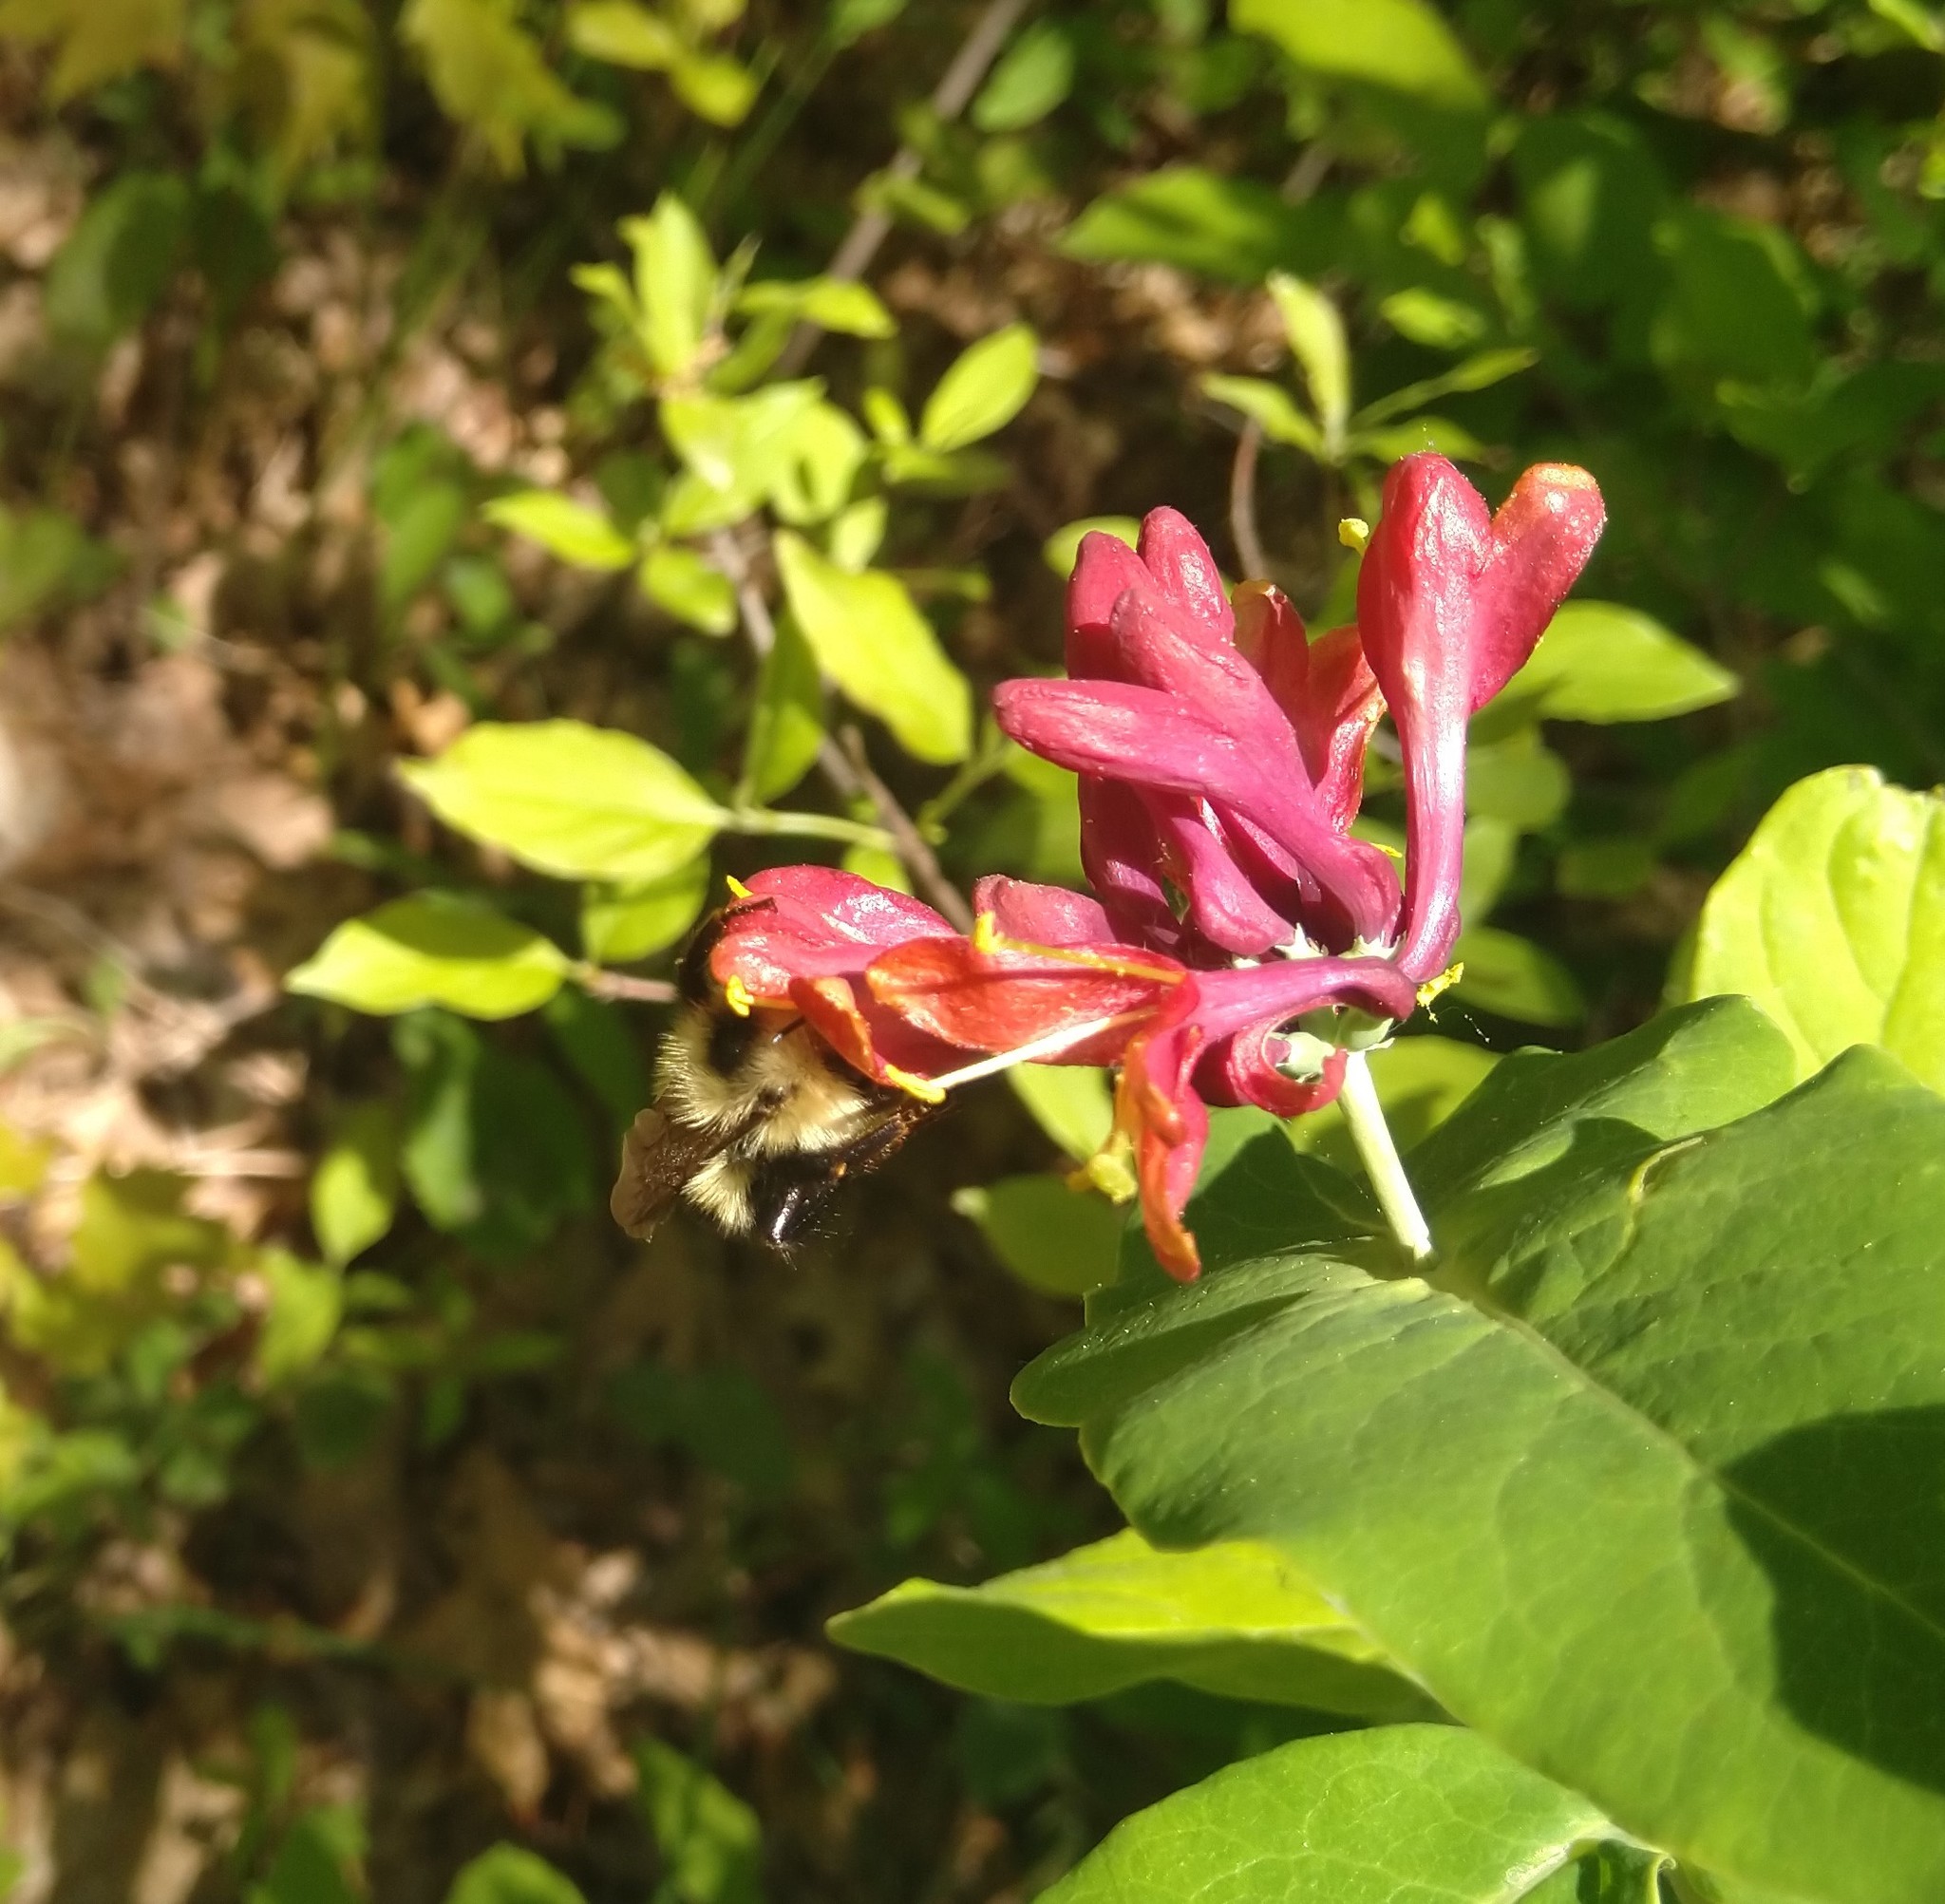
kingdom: Plantae
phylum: Tracheophyta
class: Magnoliopsida
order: Dipsacales
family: Caprifoliaceae
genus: Lonicera
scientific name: Lonicera dioica
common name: Limber honeysuckle
